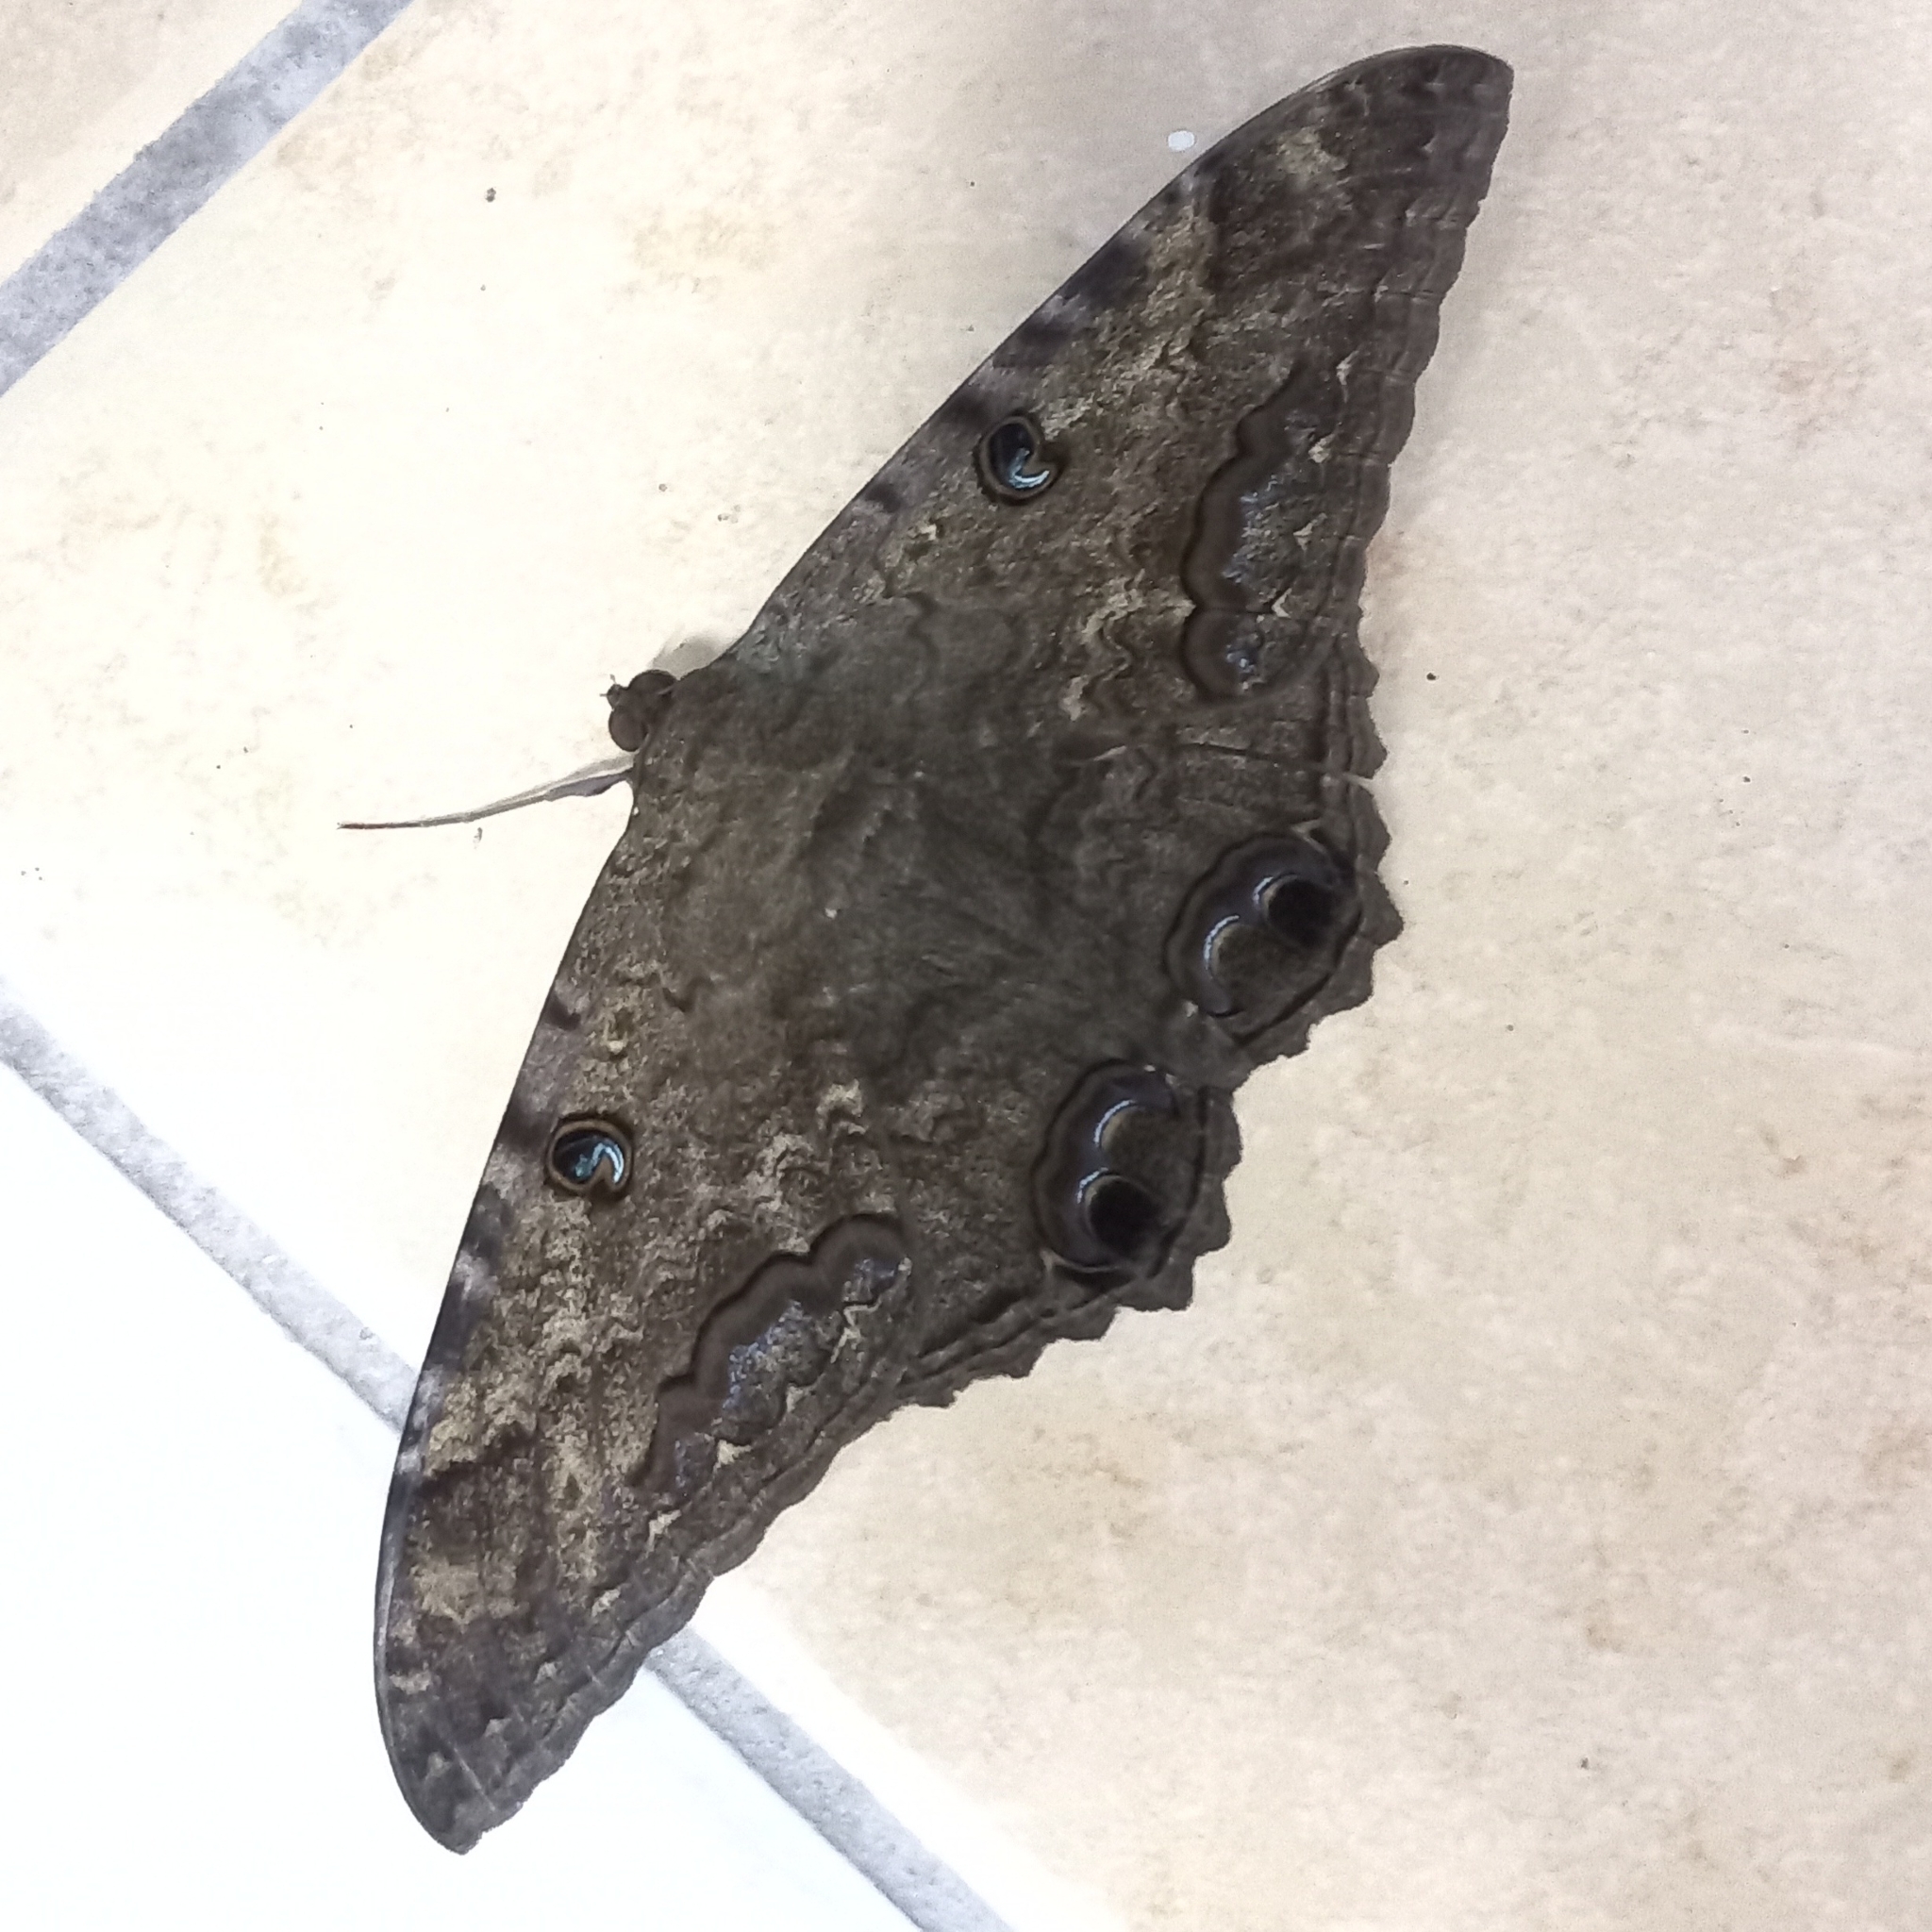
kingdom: Animalia
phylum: Arthropoda
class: Insecta
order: Lepidoptera
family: Erebidae
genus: Ascalapha
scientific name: Ascalapha odorata
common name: Black witch
